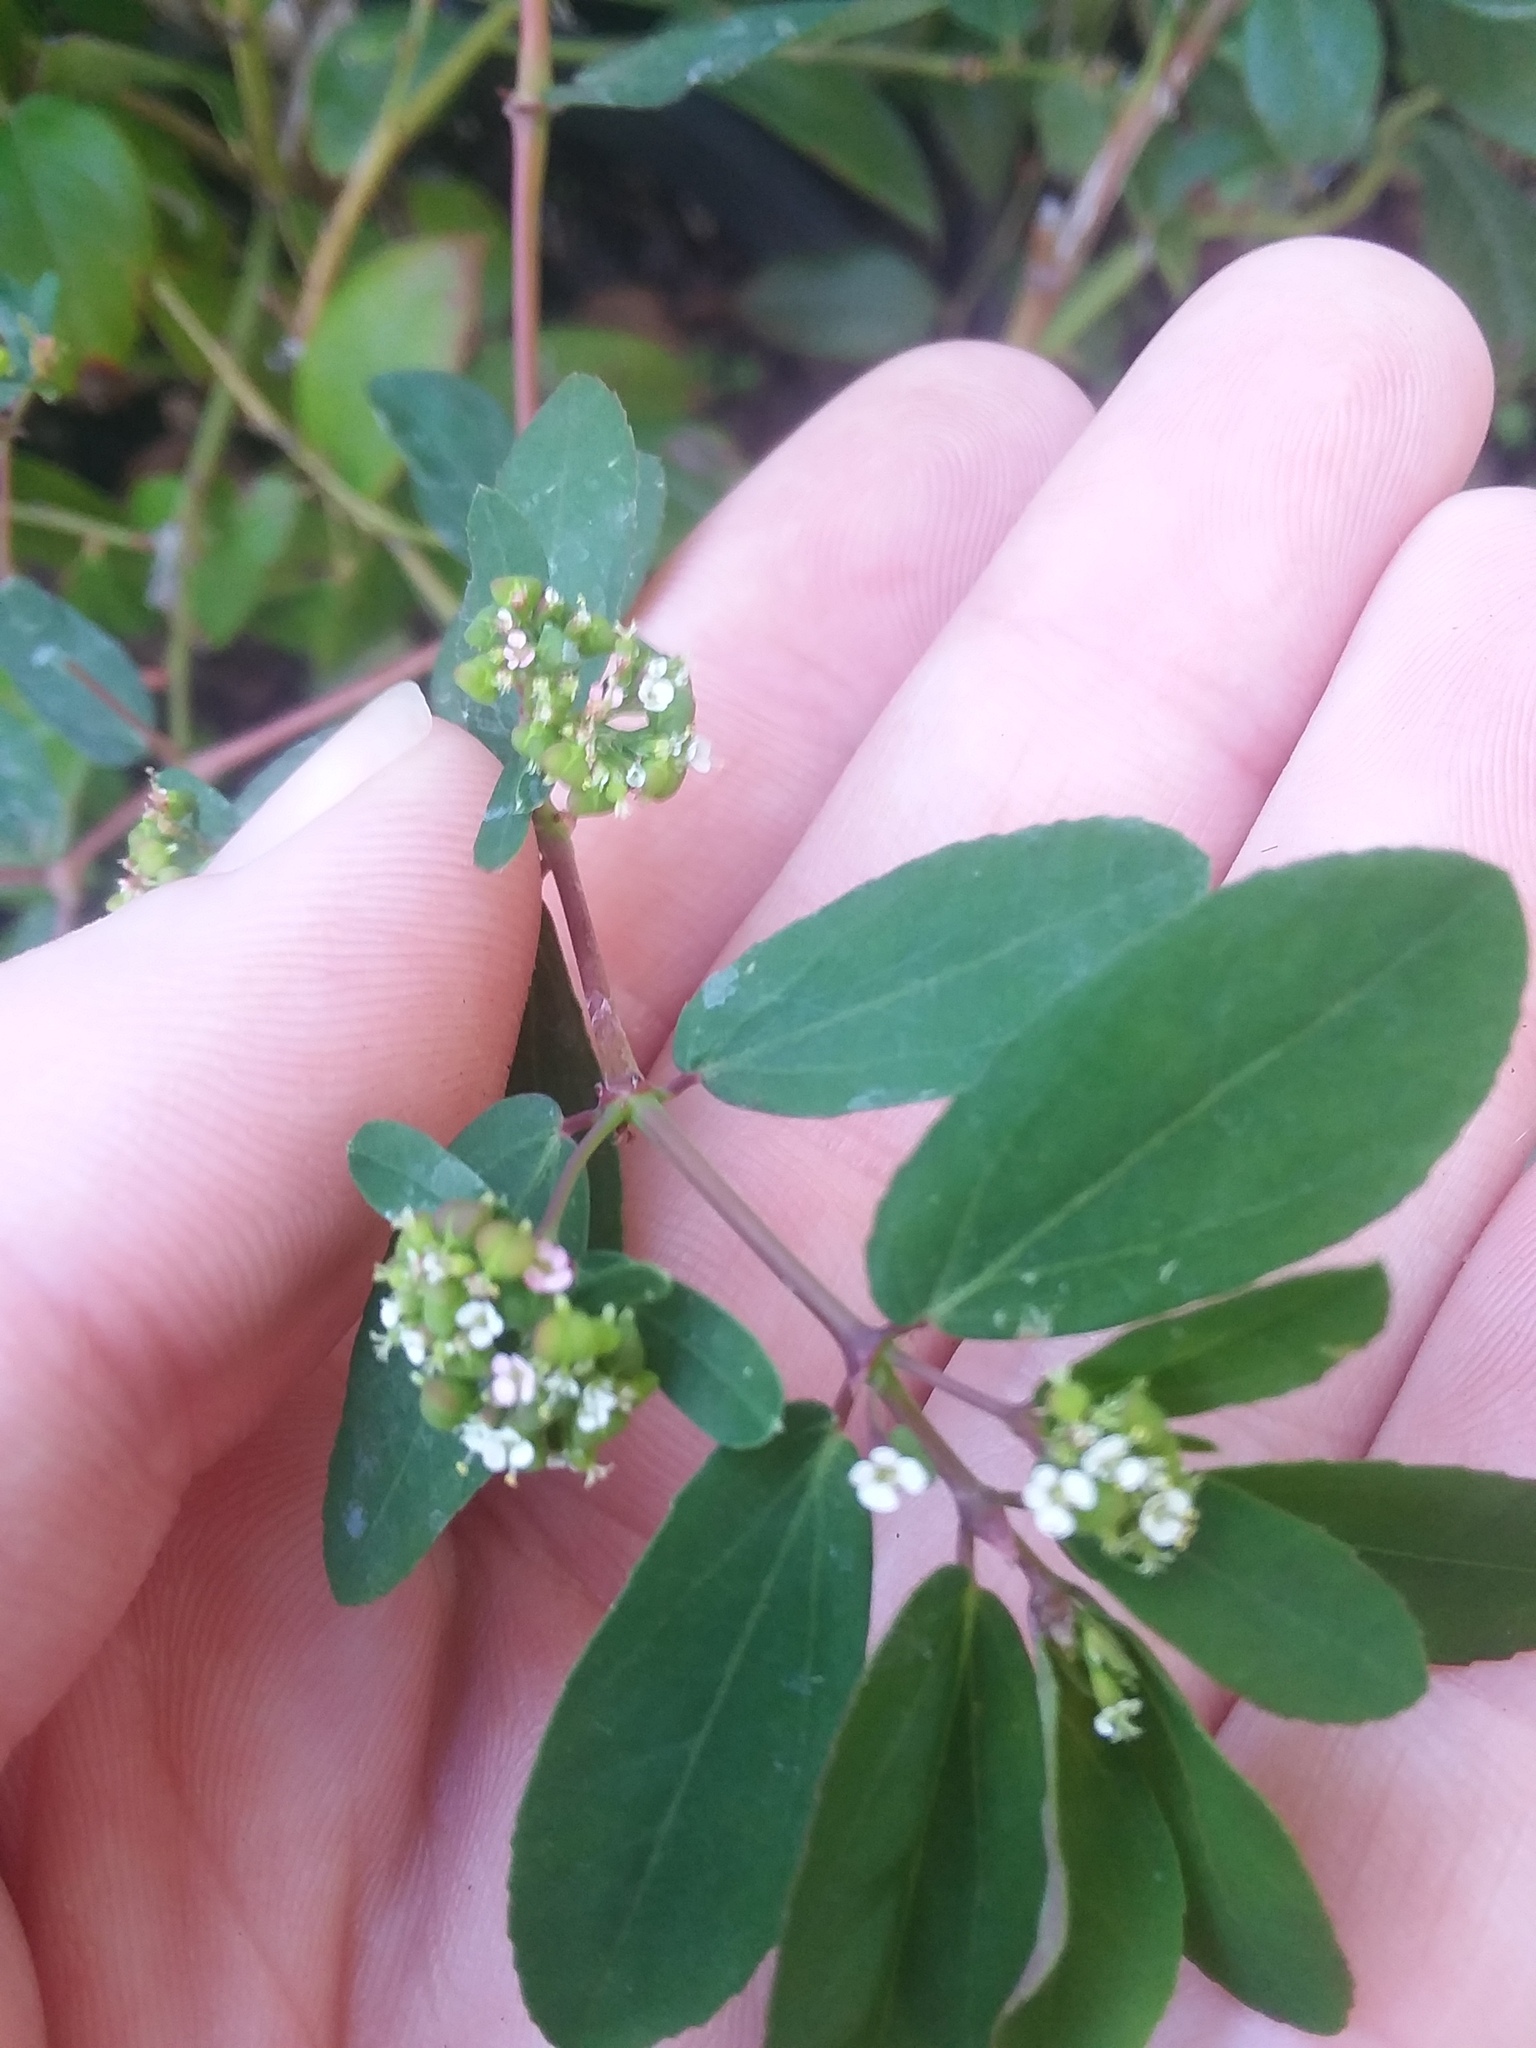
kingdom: Plantae
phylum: Tracheophyta
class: Magnoliopsida
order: Malpighiales
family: Euphorbiaceae
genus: Euphorbia
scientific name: Euphorbia hypericifolia
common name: Graceful sandmat
